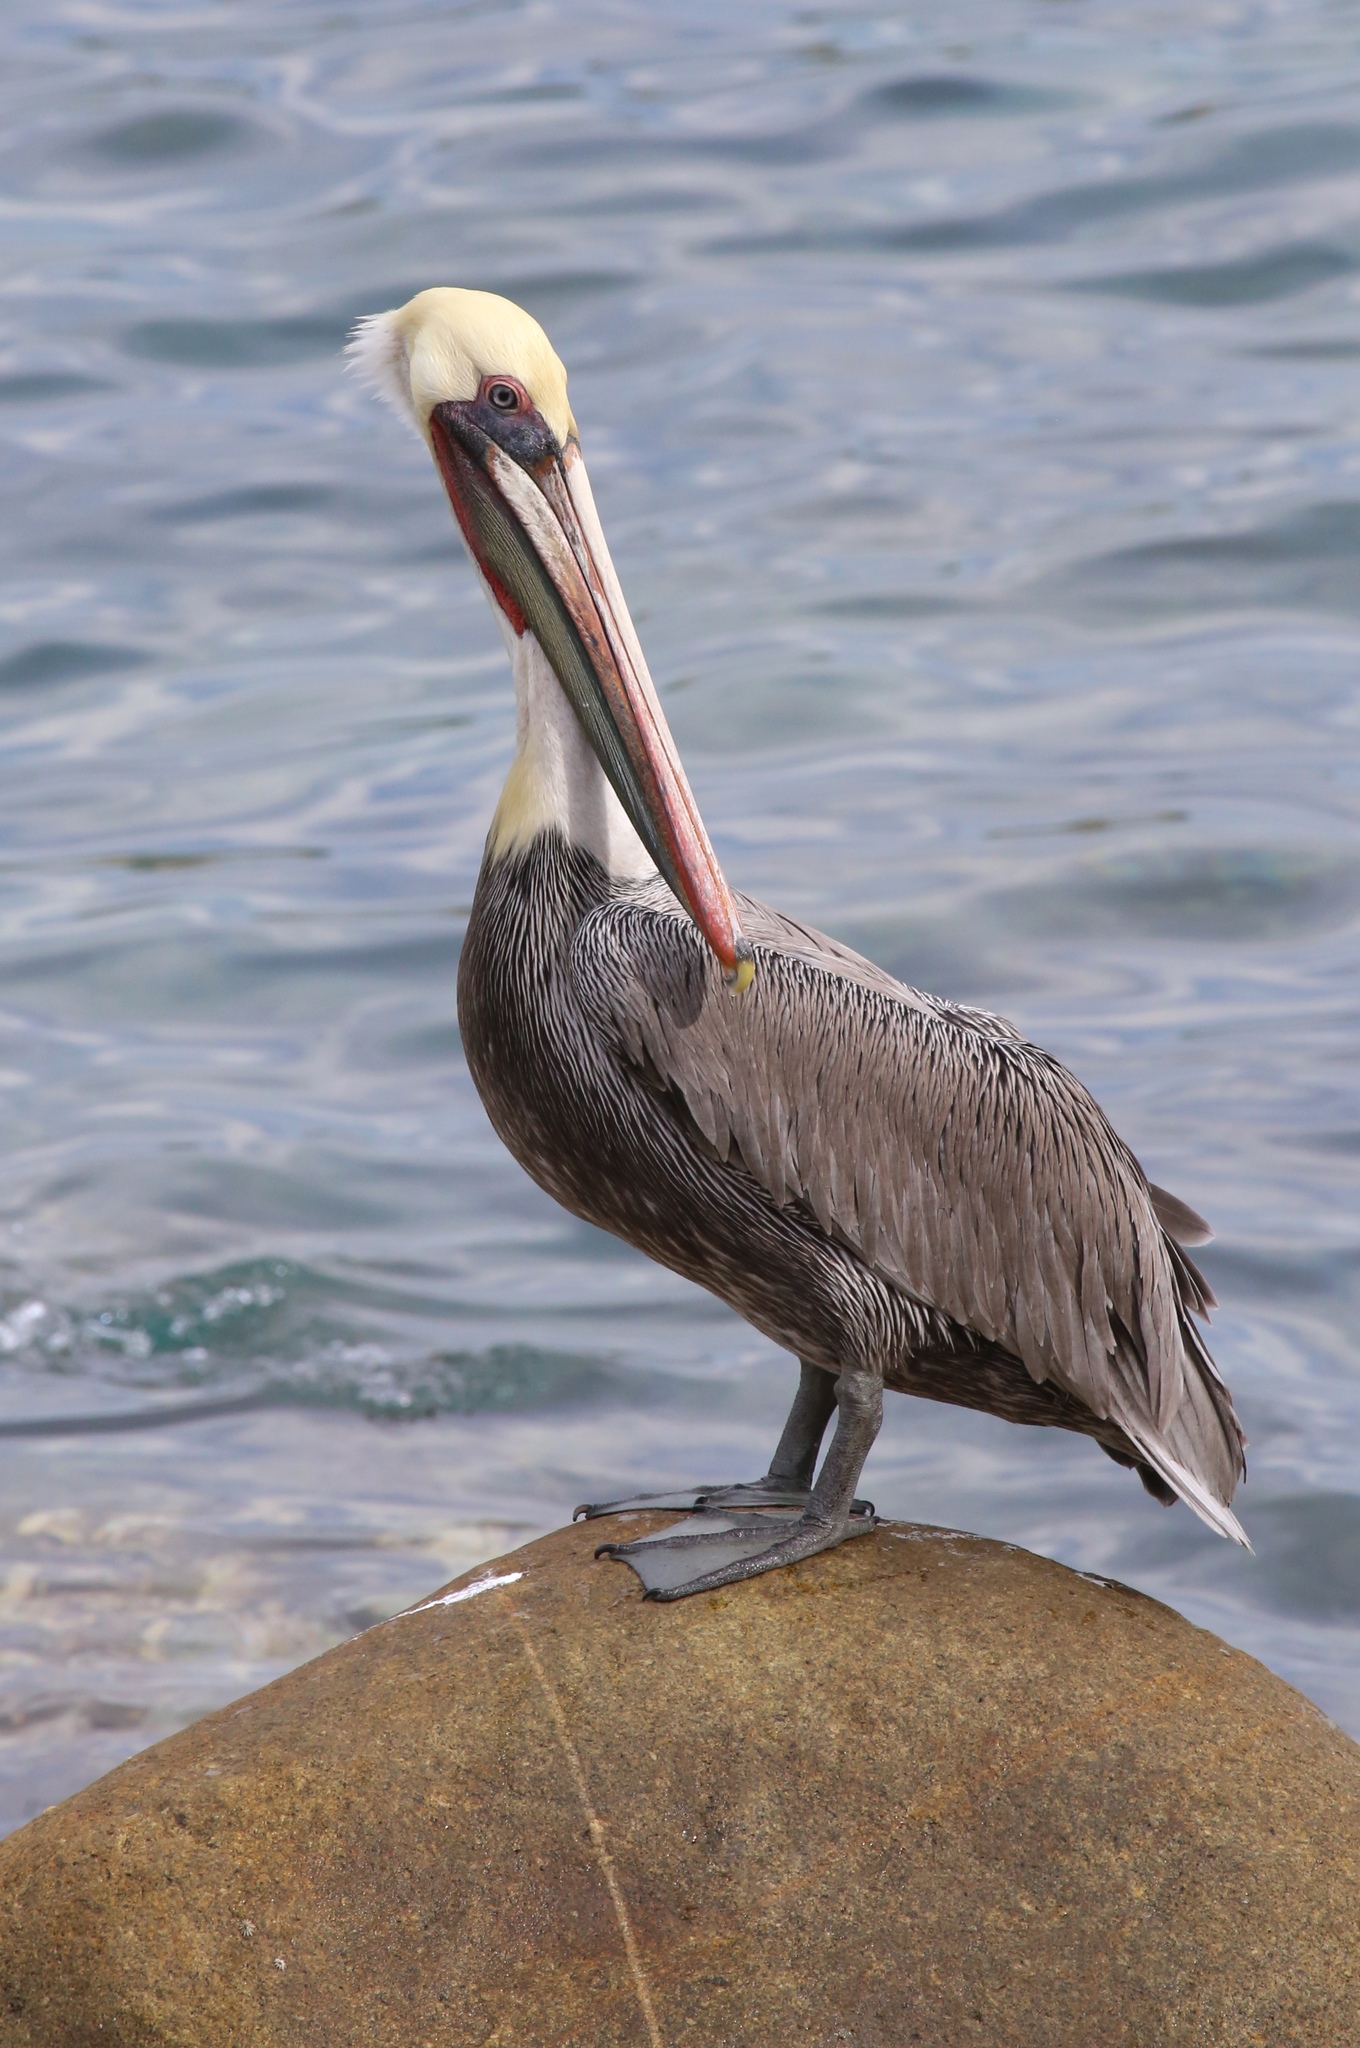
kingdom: Animalia
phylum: Chordata
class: Aves
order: Pelecaniformes
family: Pelecanidae
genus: Pelecanus
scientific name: Pelecanus occidentalis
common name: Brown pelican
